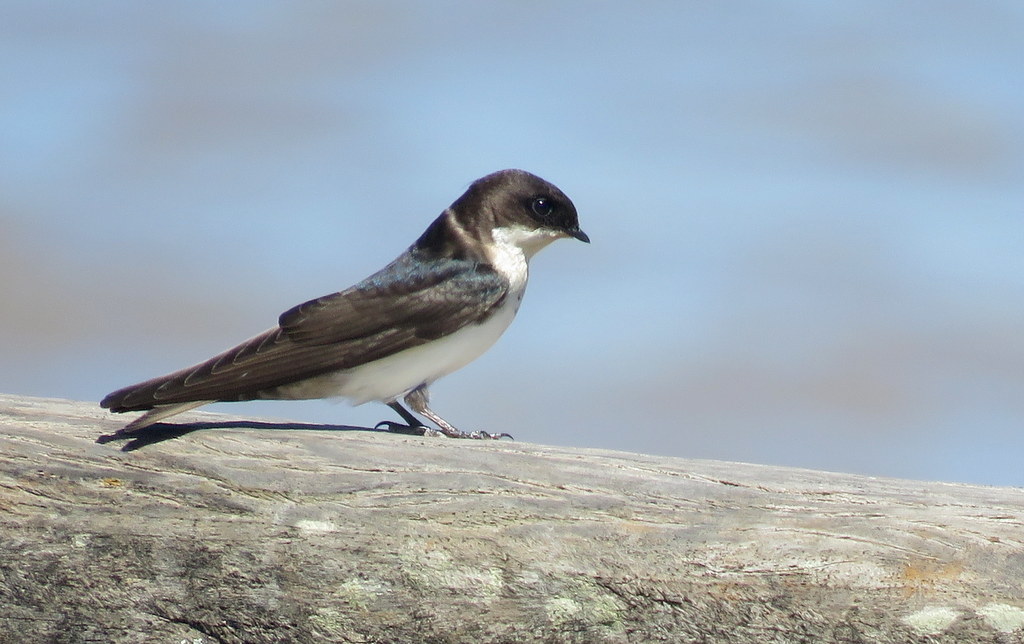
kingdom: Animalia
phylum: Chordata
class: Aves
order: Passeriformes
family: Hirundinidae
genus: Notiochelidon
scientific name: Notiochelidon cyanoleuca
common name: Blue-and-white swallow
